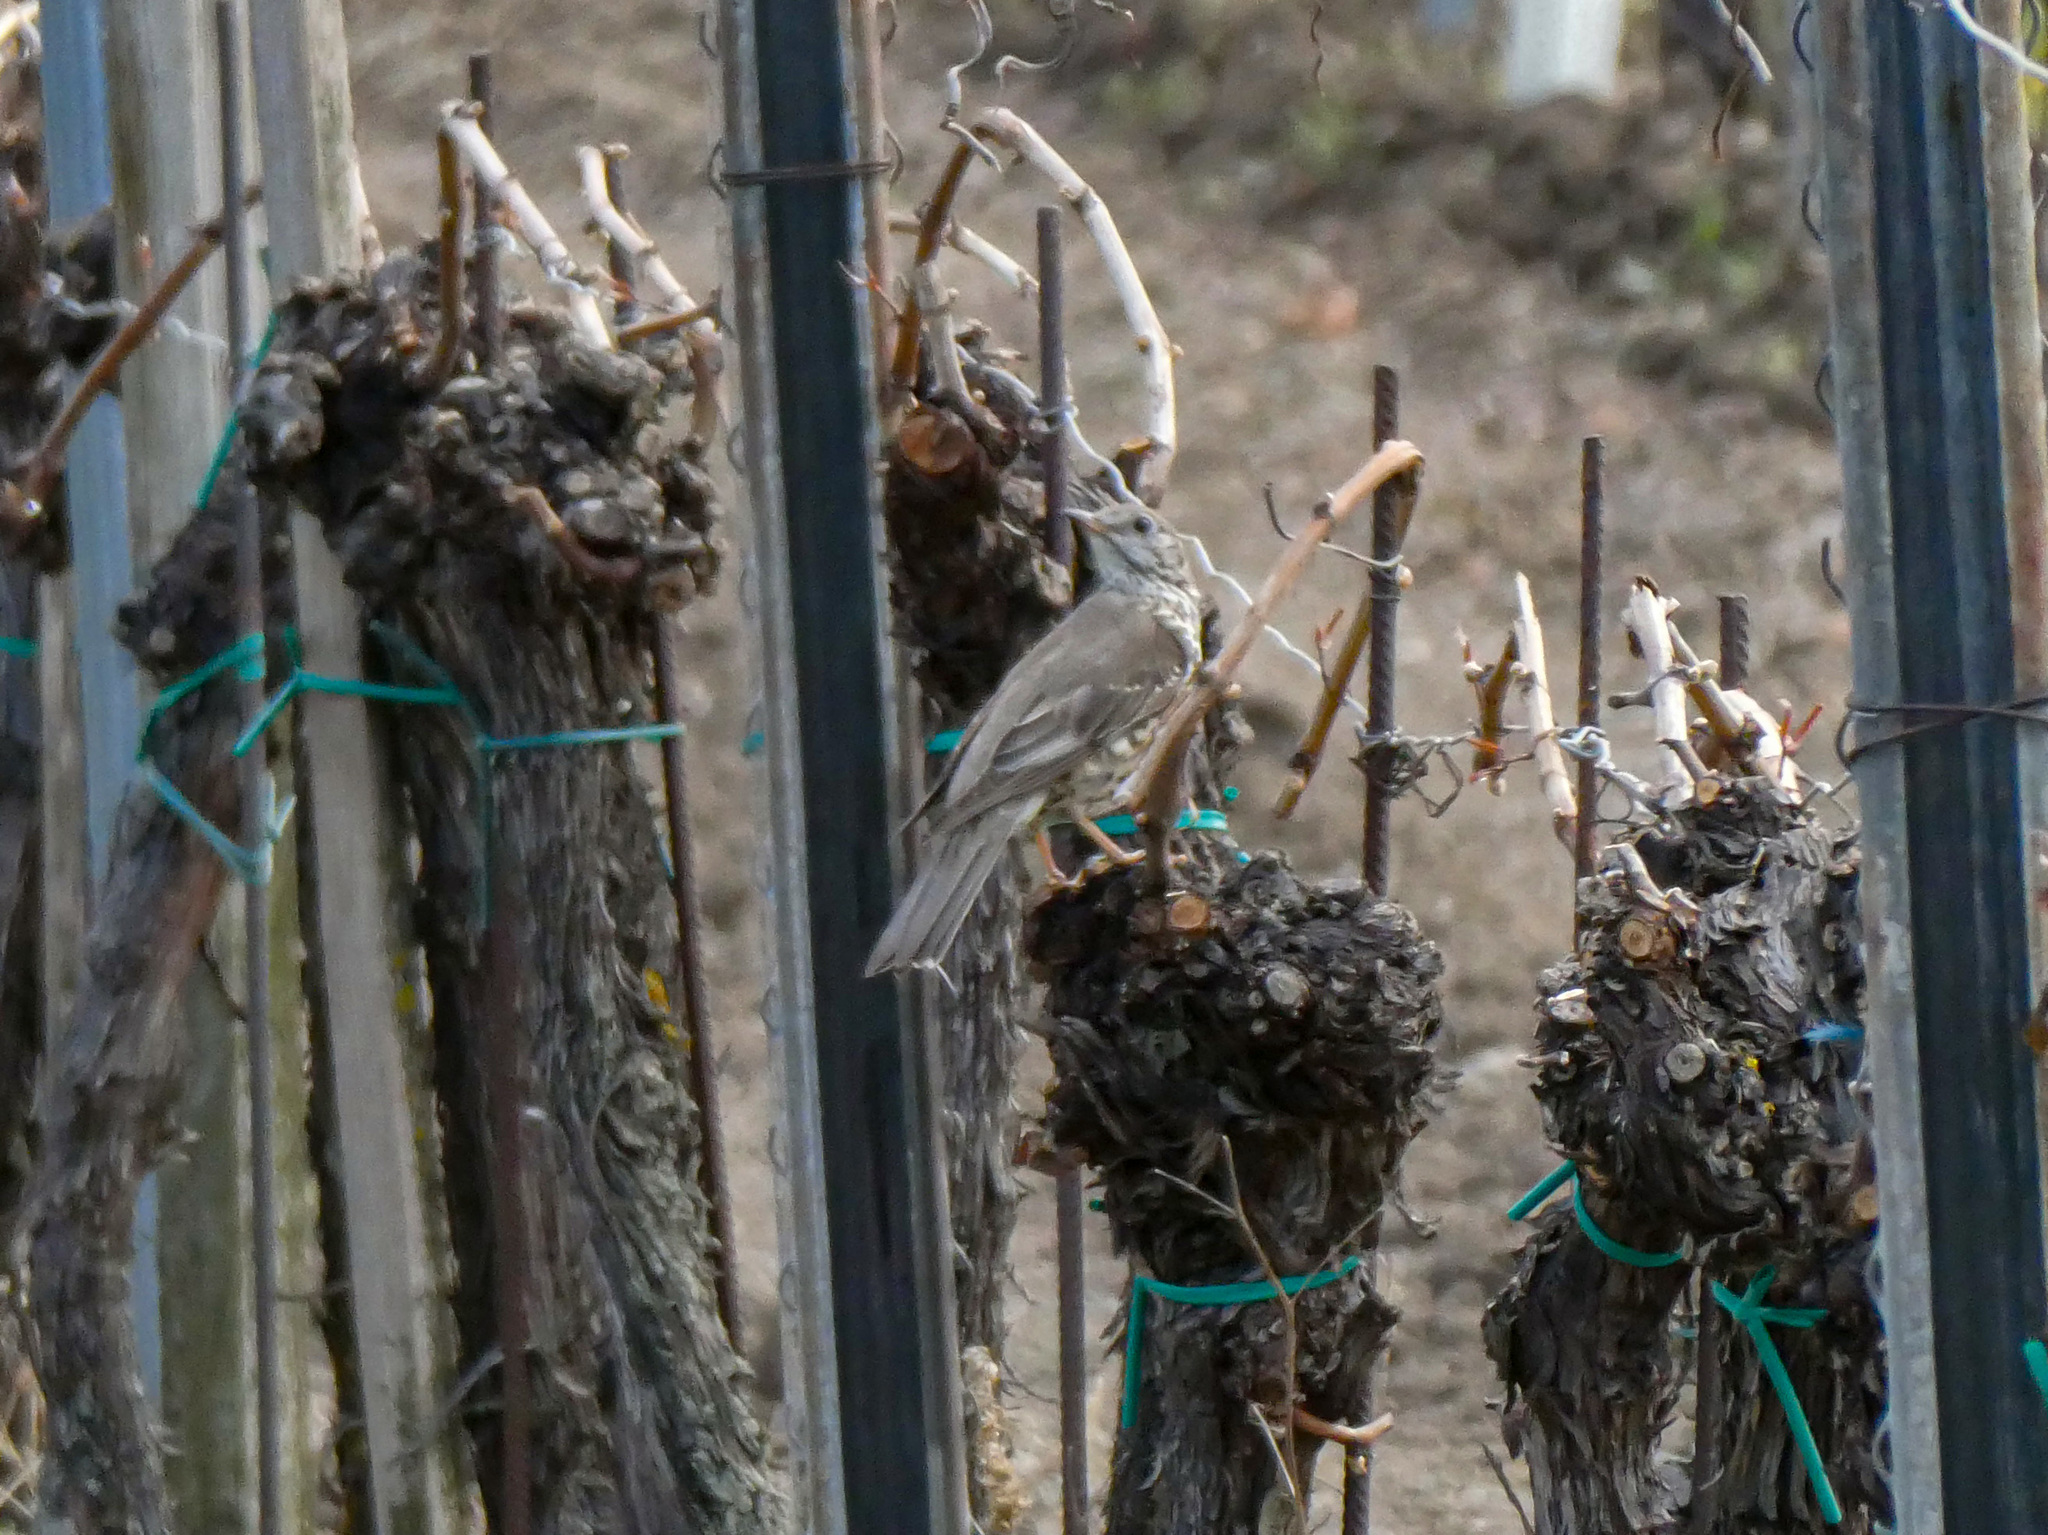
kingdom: Animalia
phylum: Chordata
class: Aves
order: Passeriformes
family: Turdidae
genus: Turdus
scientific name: Turdus viscivorus
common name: Mistle thrush
